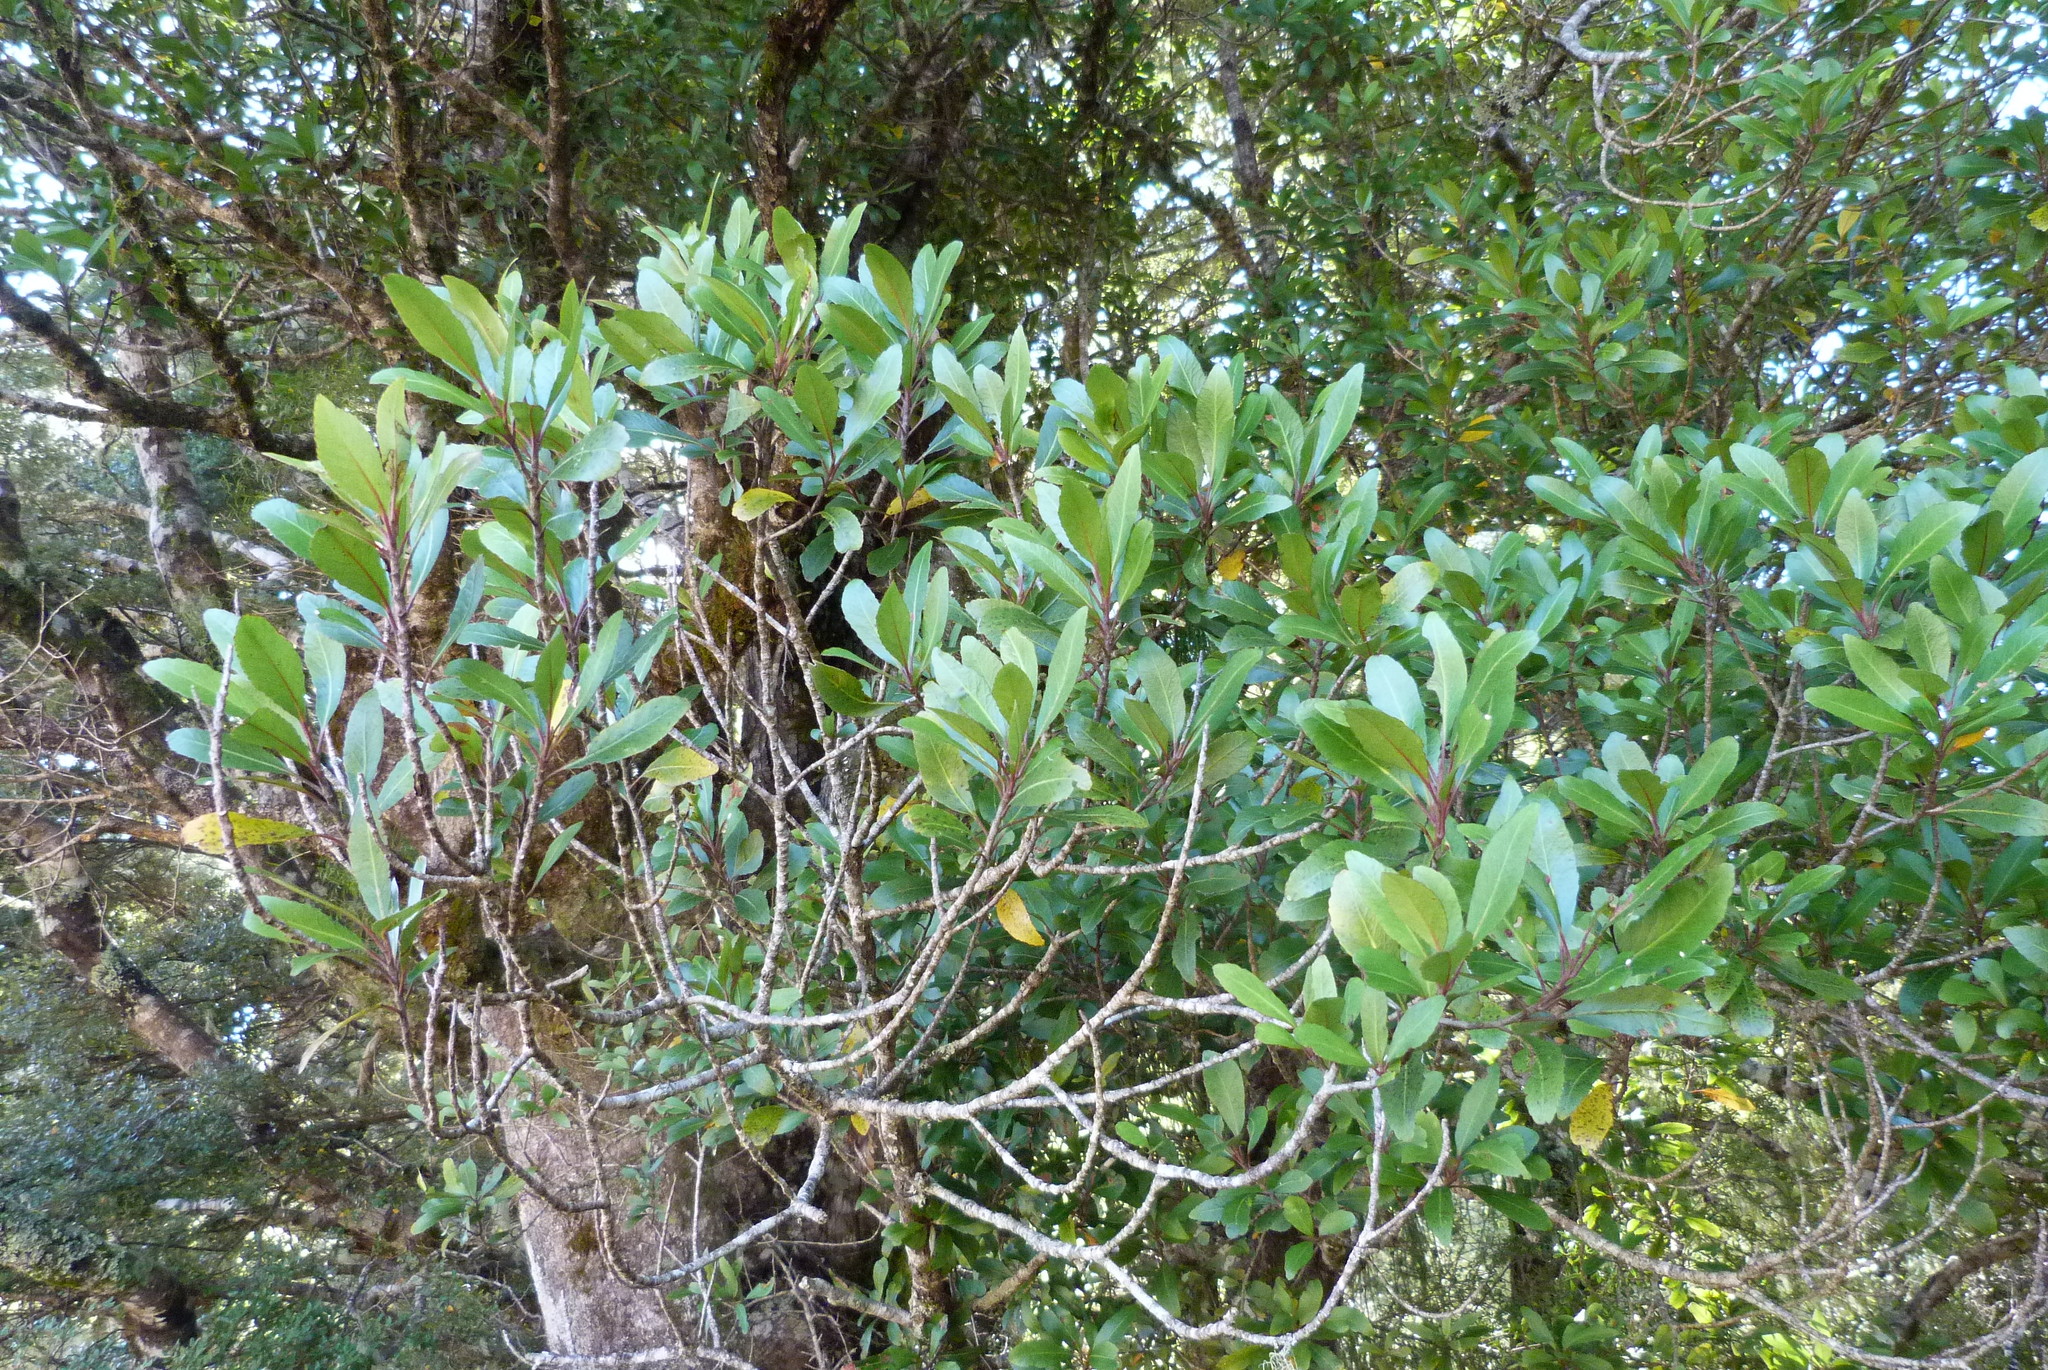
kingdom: Plantae
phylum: Tracheophyta
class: Magnoliopsida
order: Oxalidales
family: Elaeocarpaceae
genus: Elaeocarpus
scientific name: Elaeocarpus hookerianus
